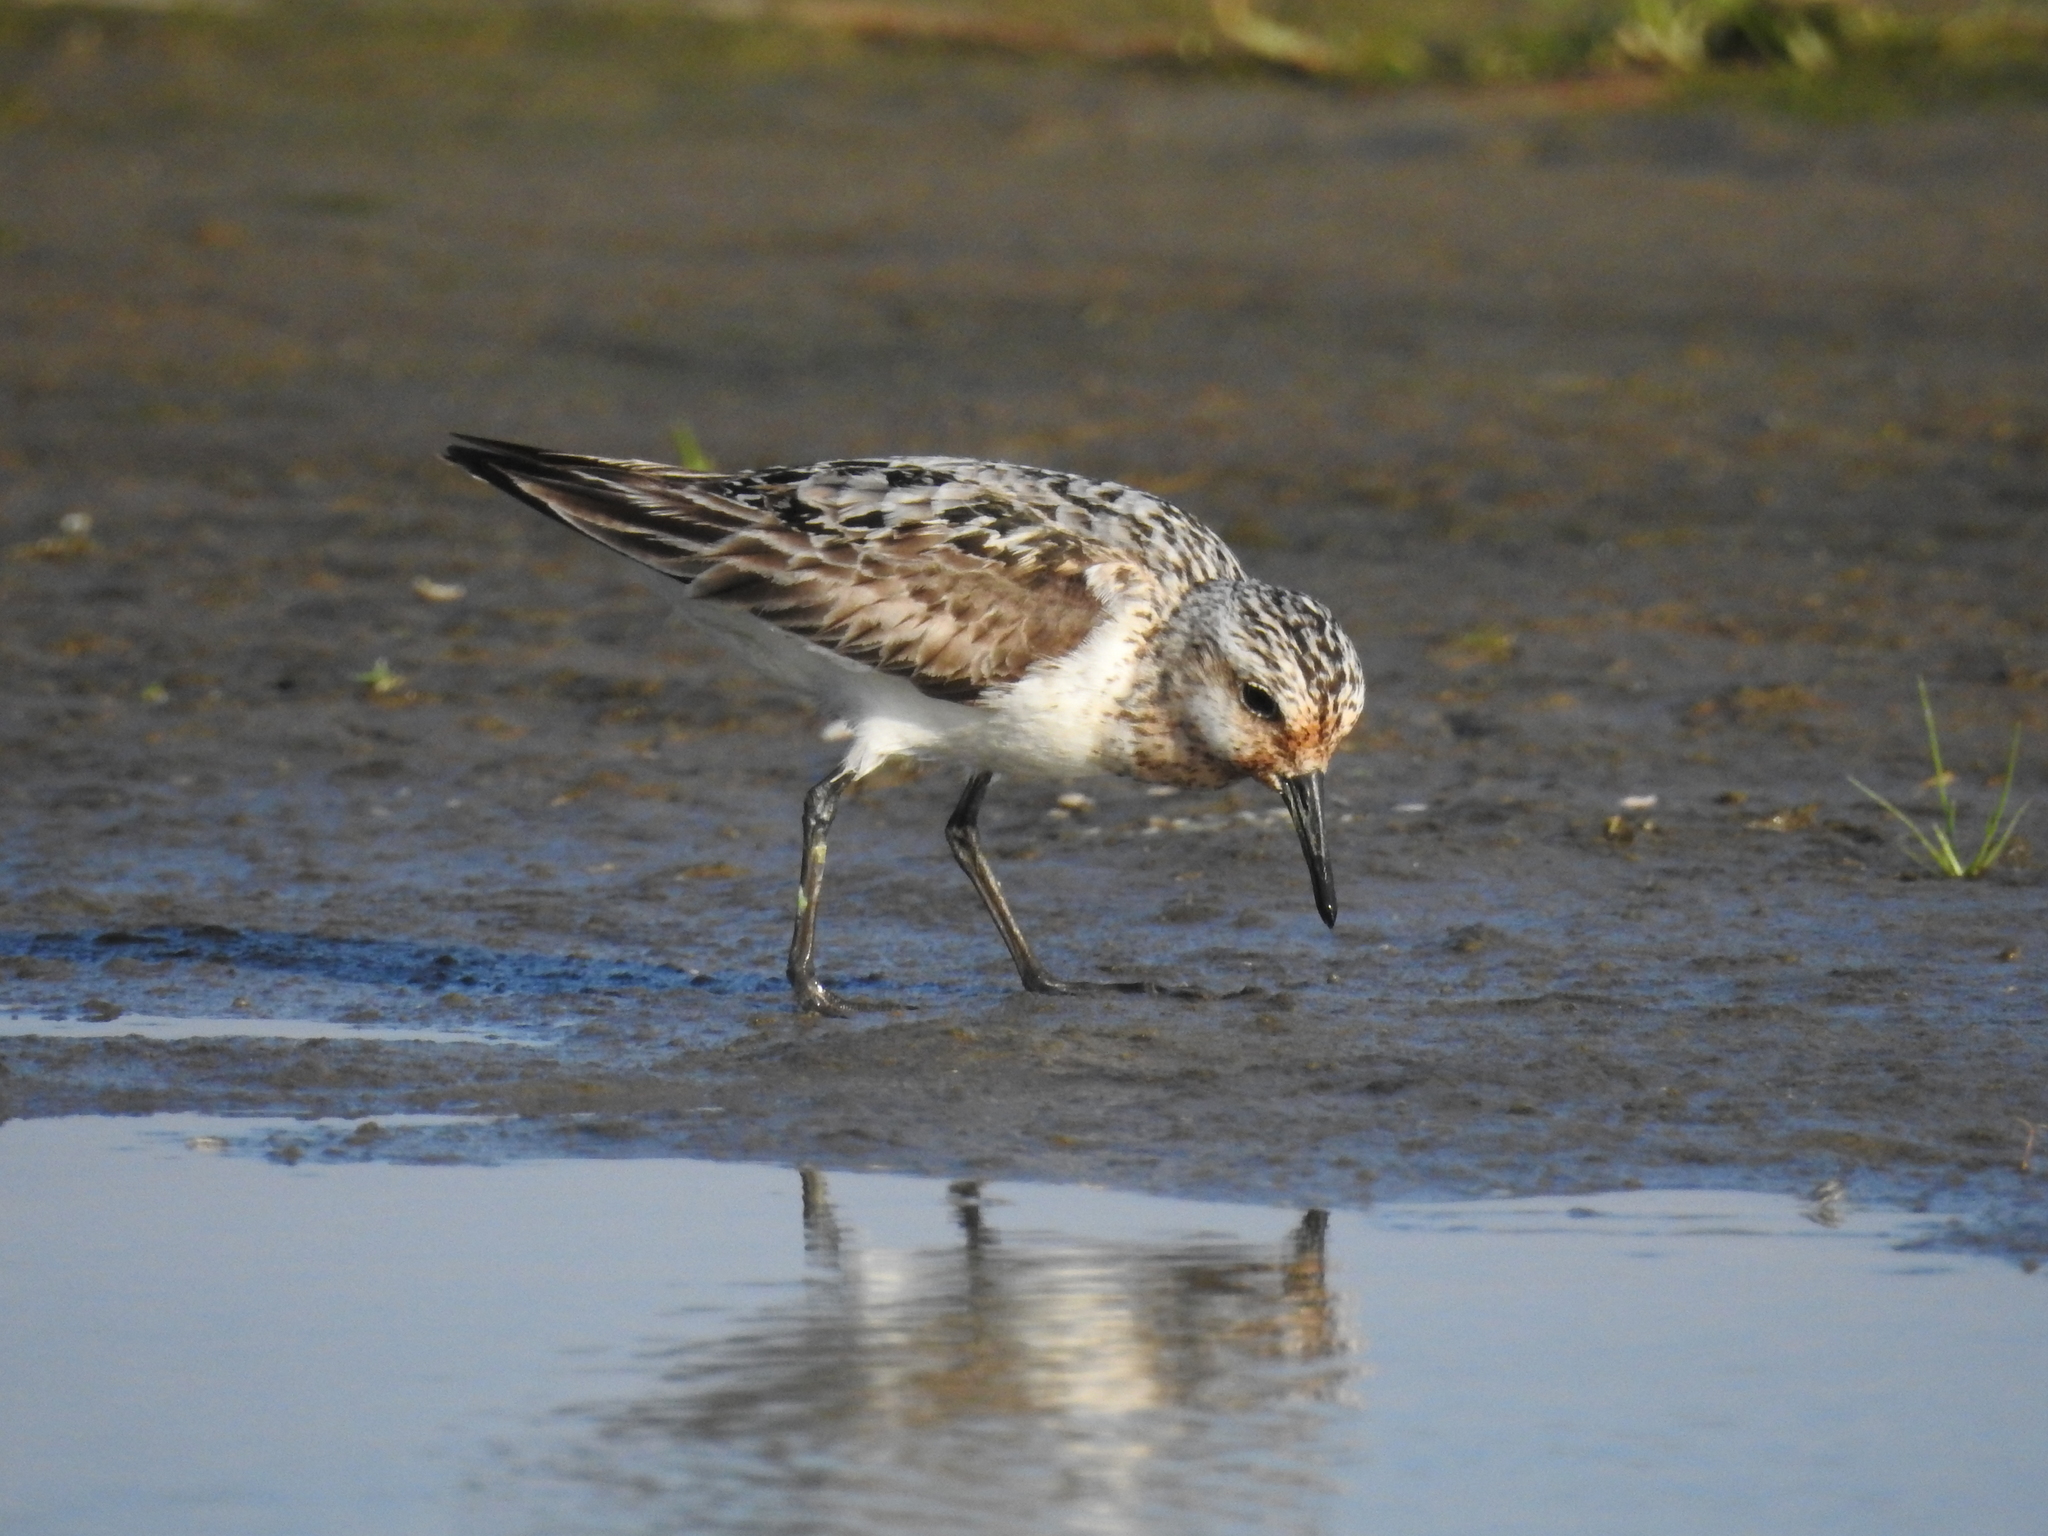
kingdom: Animalia
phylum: Chordata
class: Aves
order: Charadriiformes
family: Scolopacidae
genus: Calidris
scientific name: Calidris alba
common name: Sanderling
